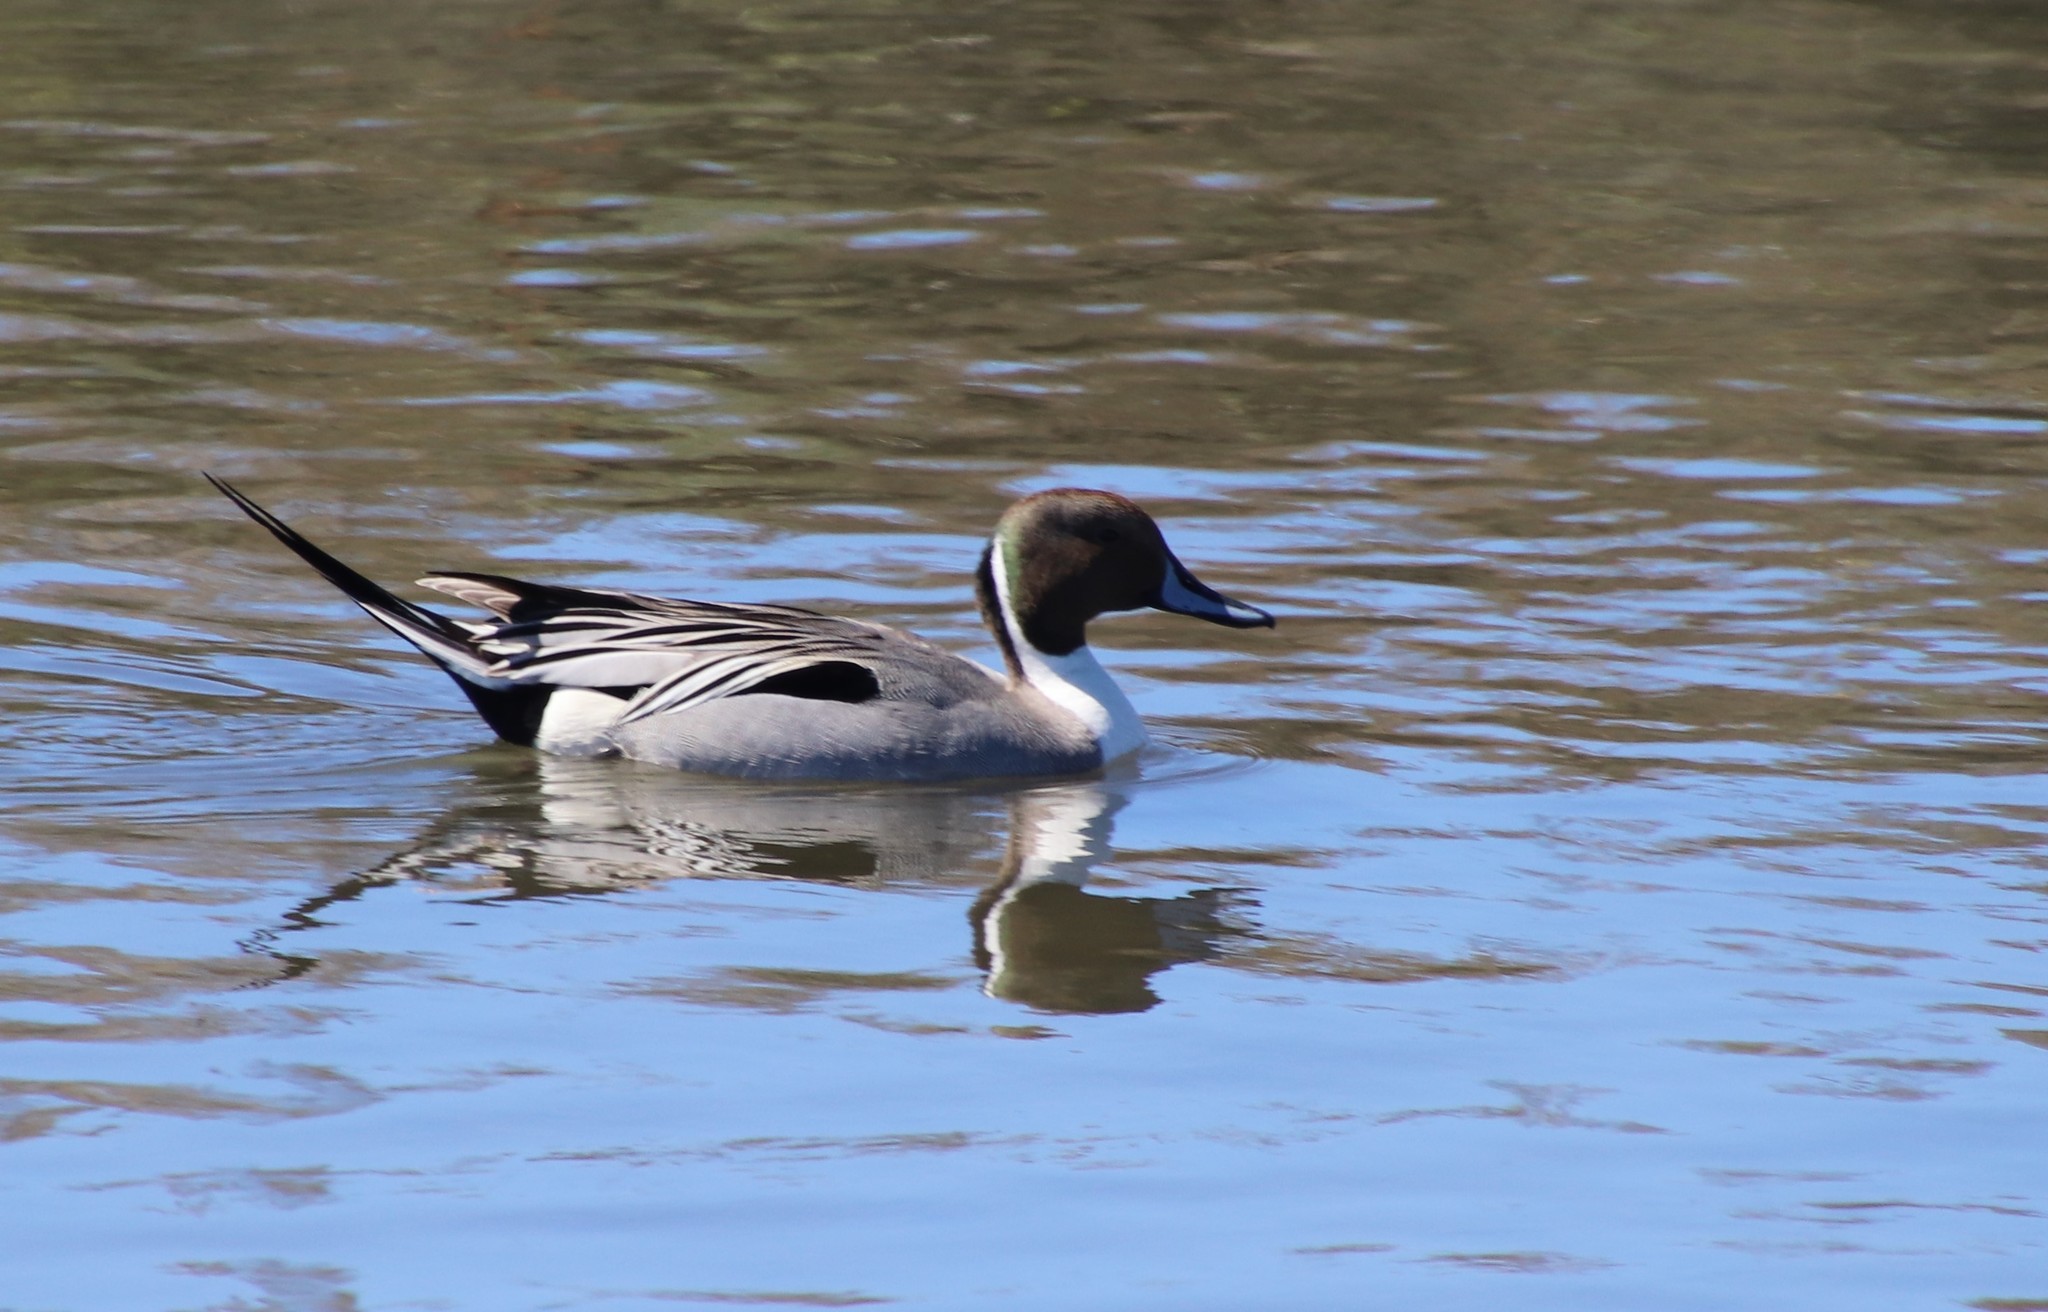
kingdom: Animalia
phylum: Chordata
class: Aves
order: Anseriformes
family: Anatidae
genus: Anas
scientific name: Anas acuta
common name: Northern pintail
